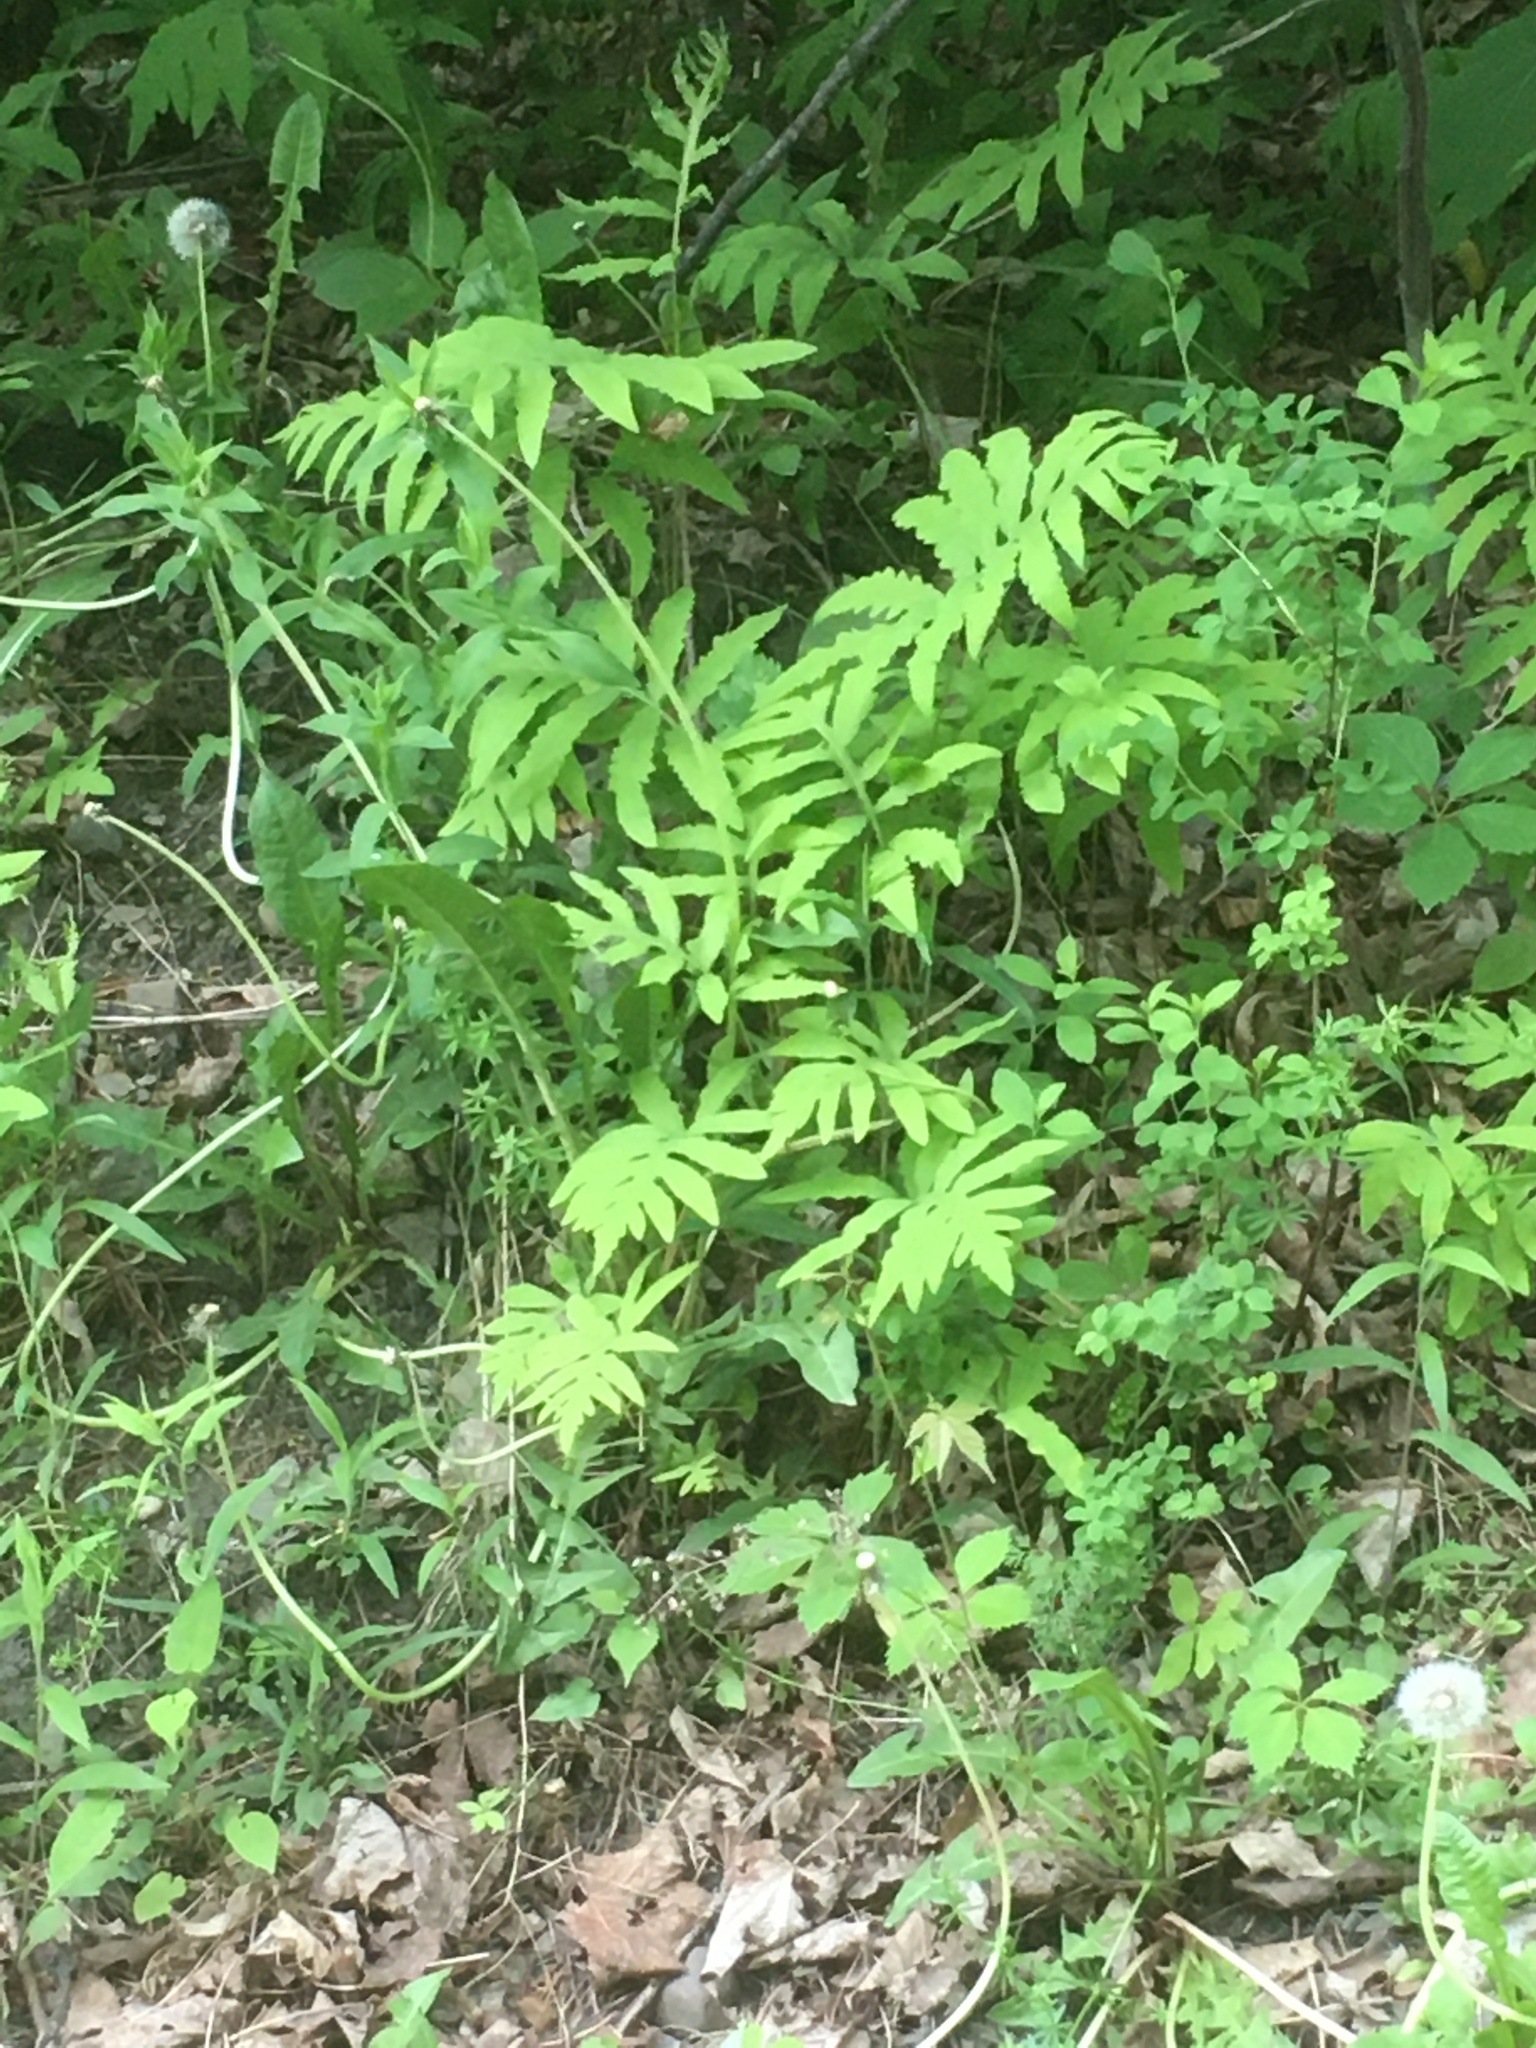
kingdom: Plantae
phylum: Tracheophyta
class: Polypodiopsida
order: Polypodiales
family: Onocleaceae
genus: Onoclea
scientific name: Onoclea sensibilis
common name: Sensitive fern
